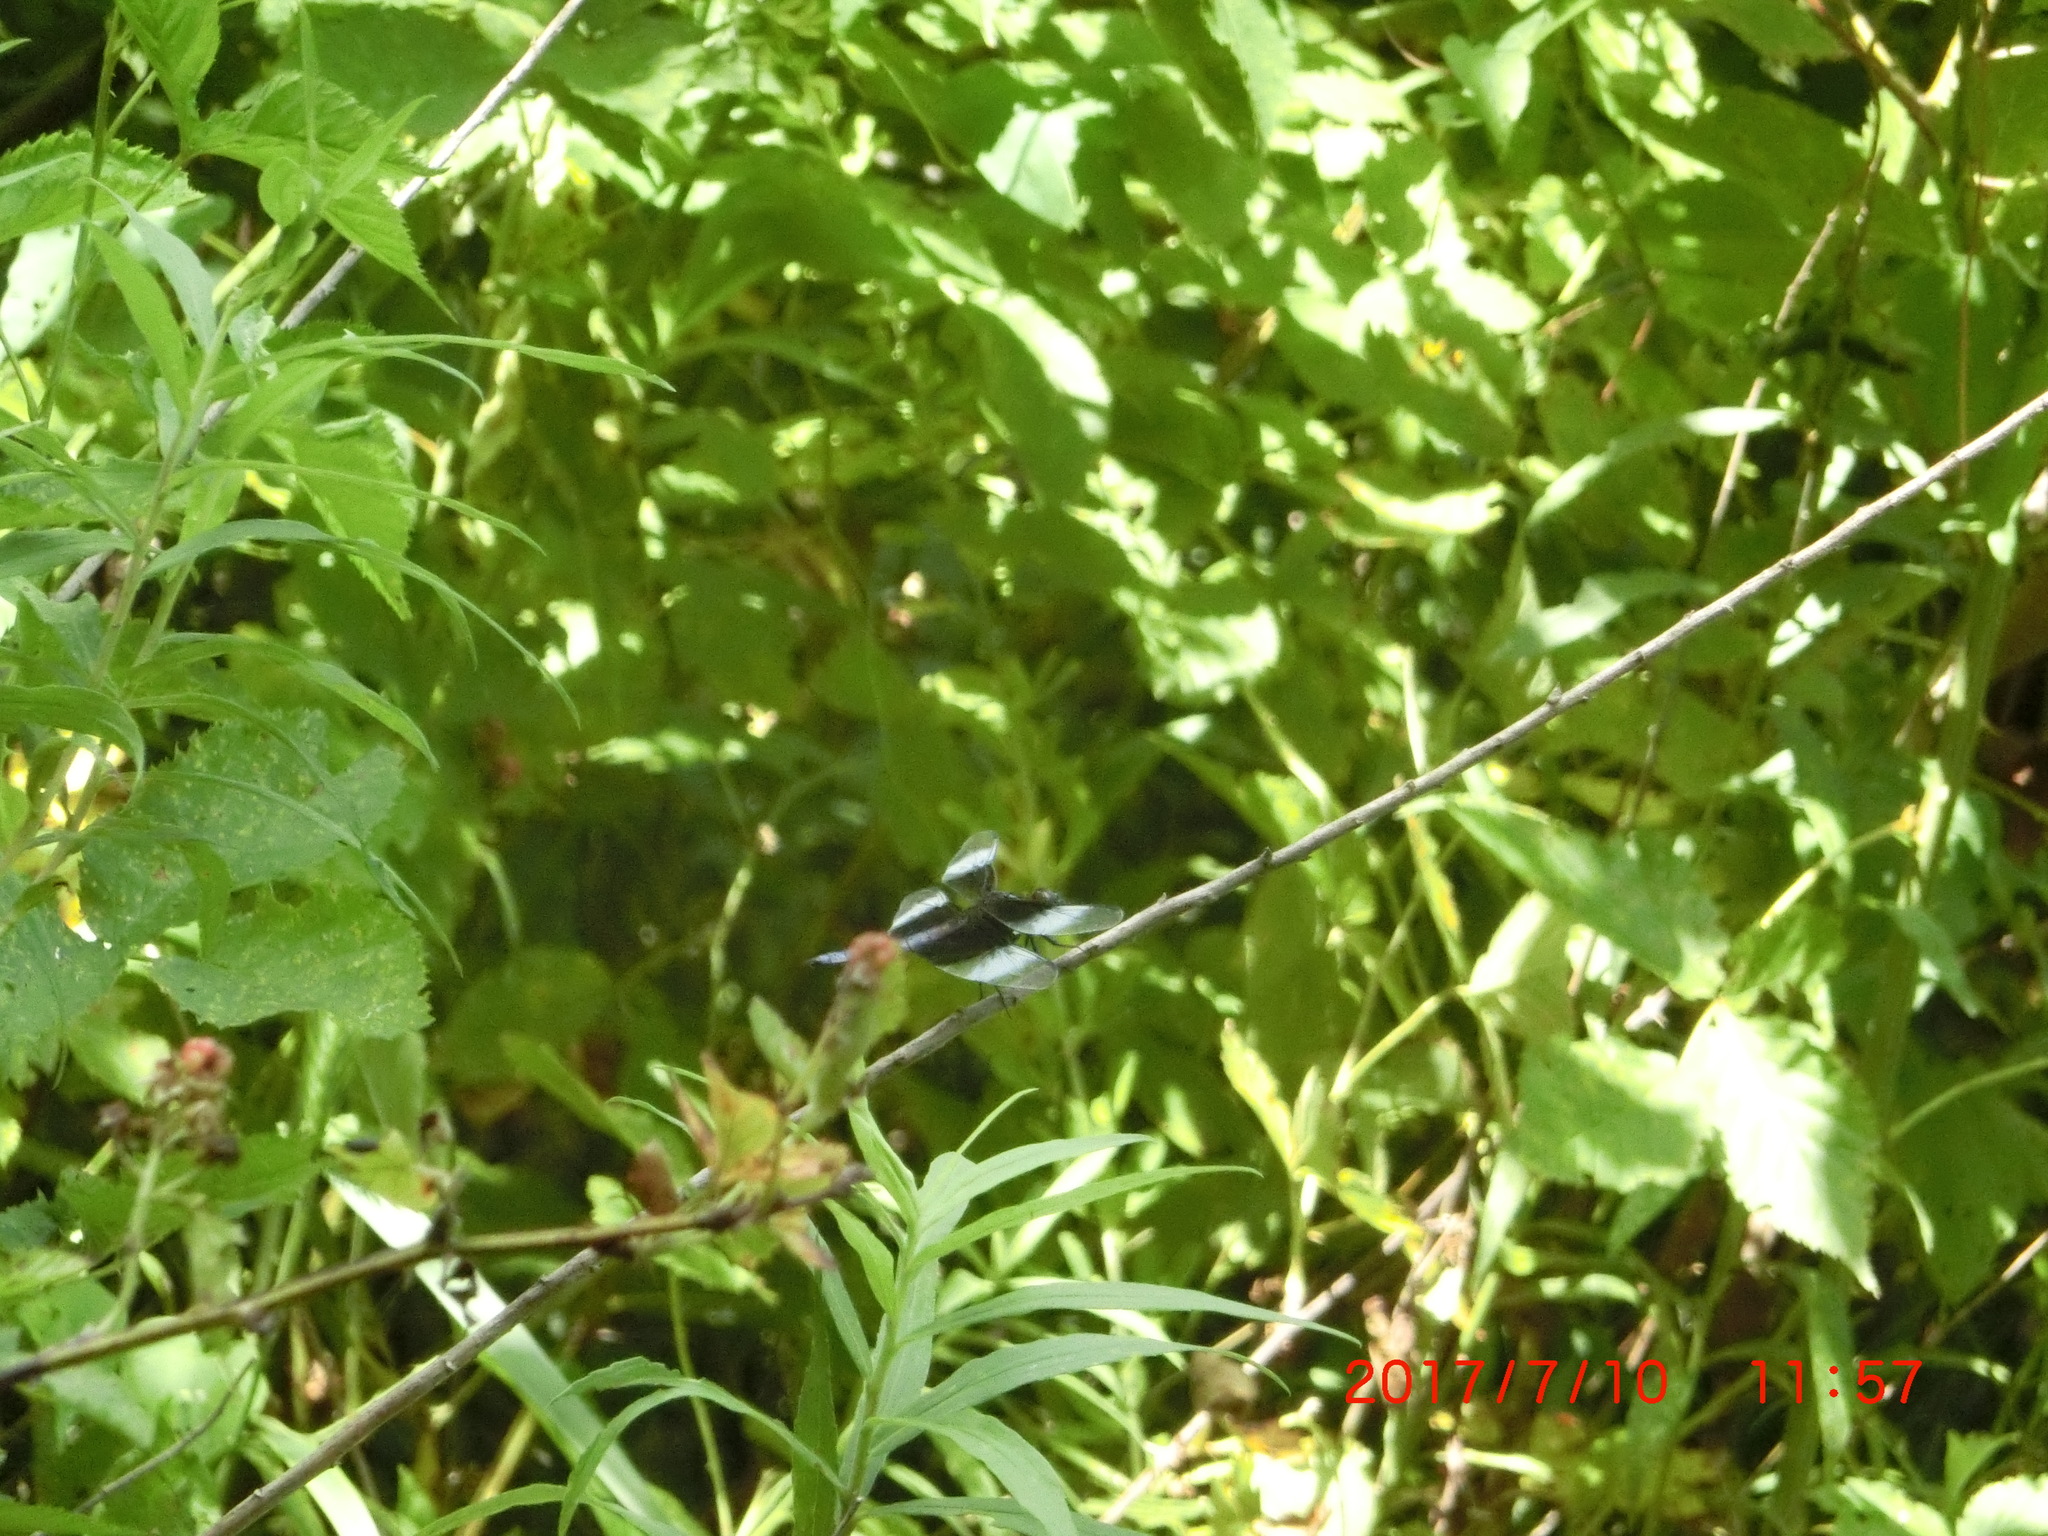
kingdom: Animalia
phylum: Arthropoda
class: Insecta
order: Odonata
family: Libellulidae
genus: Libellula
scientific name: Libellula luctuosa
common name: Widow skimmer
